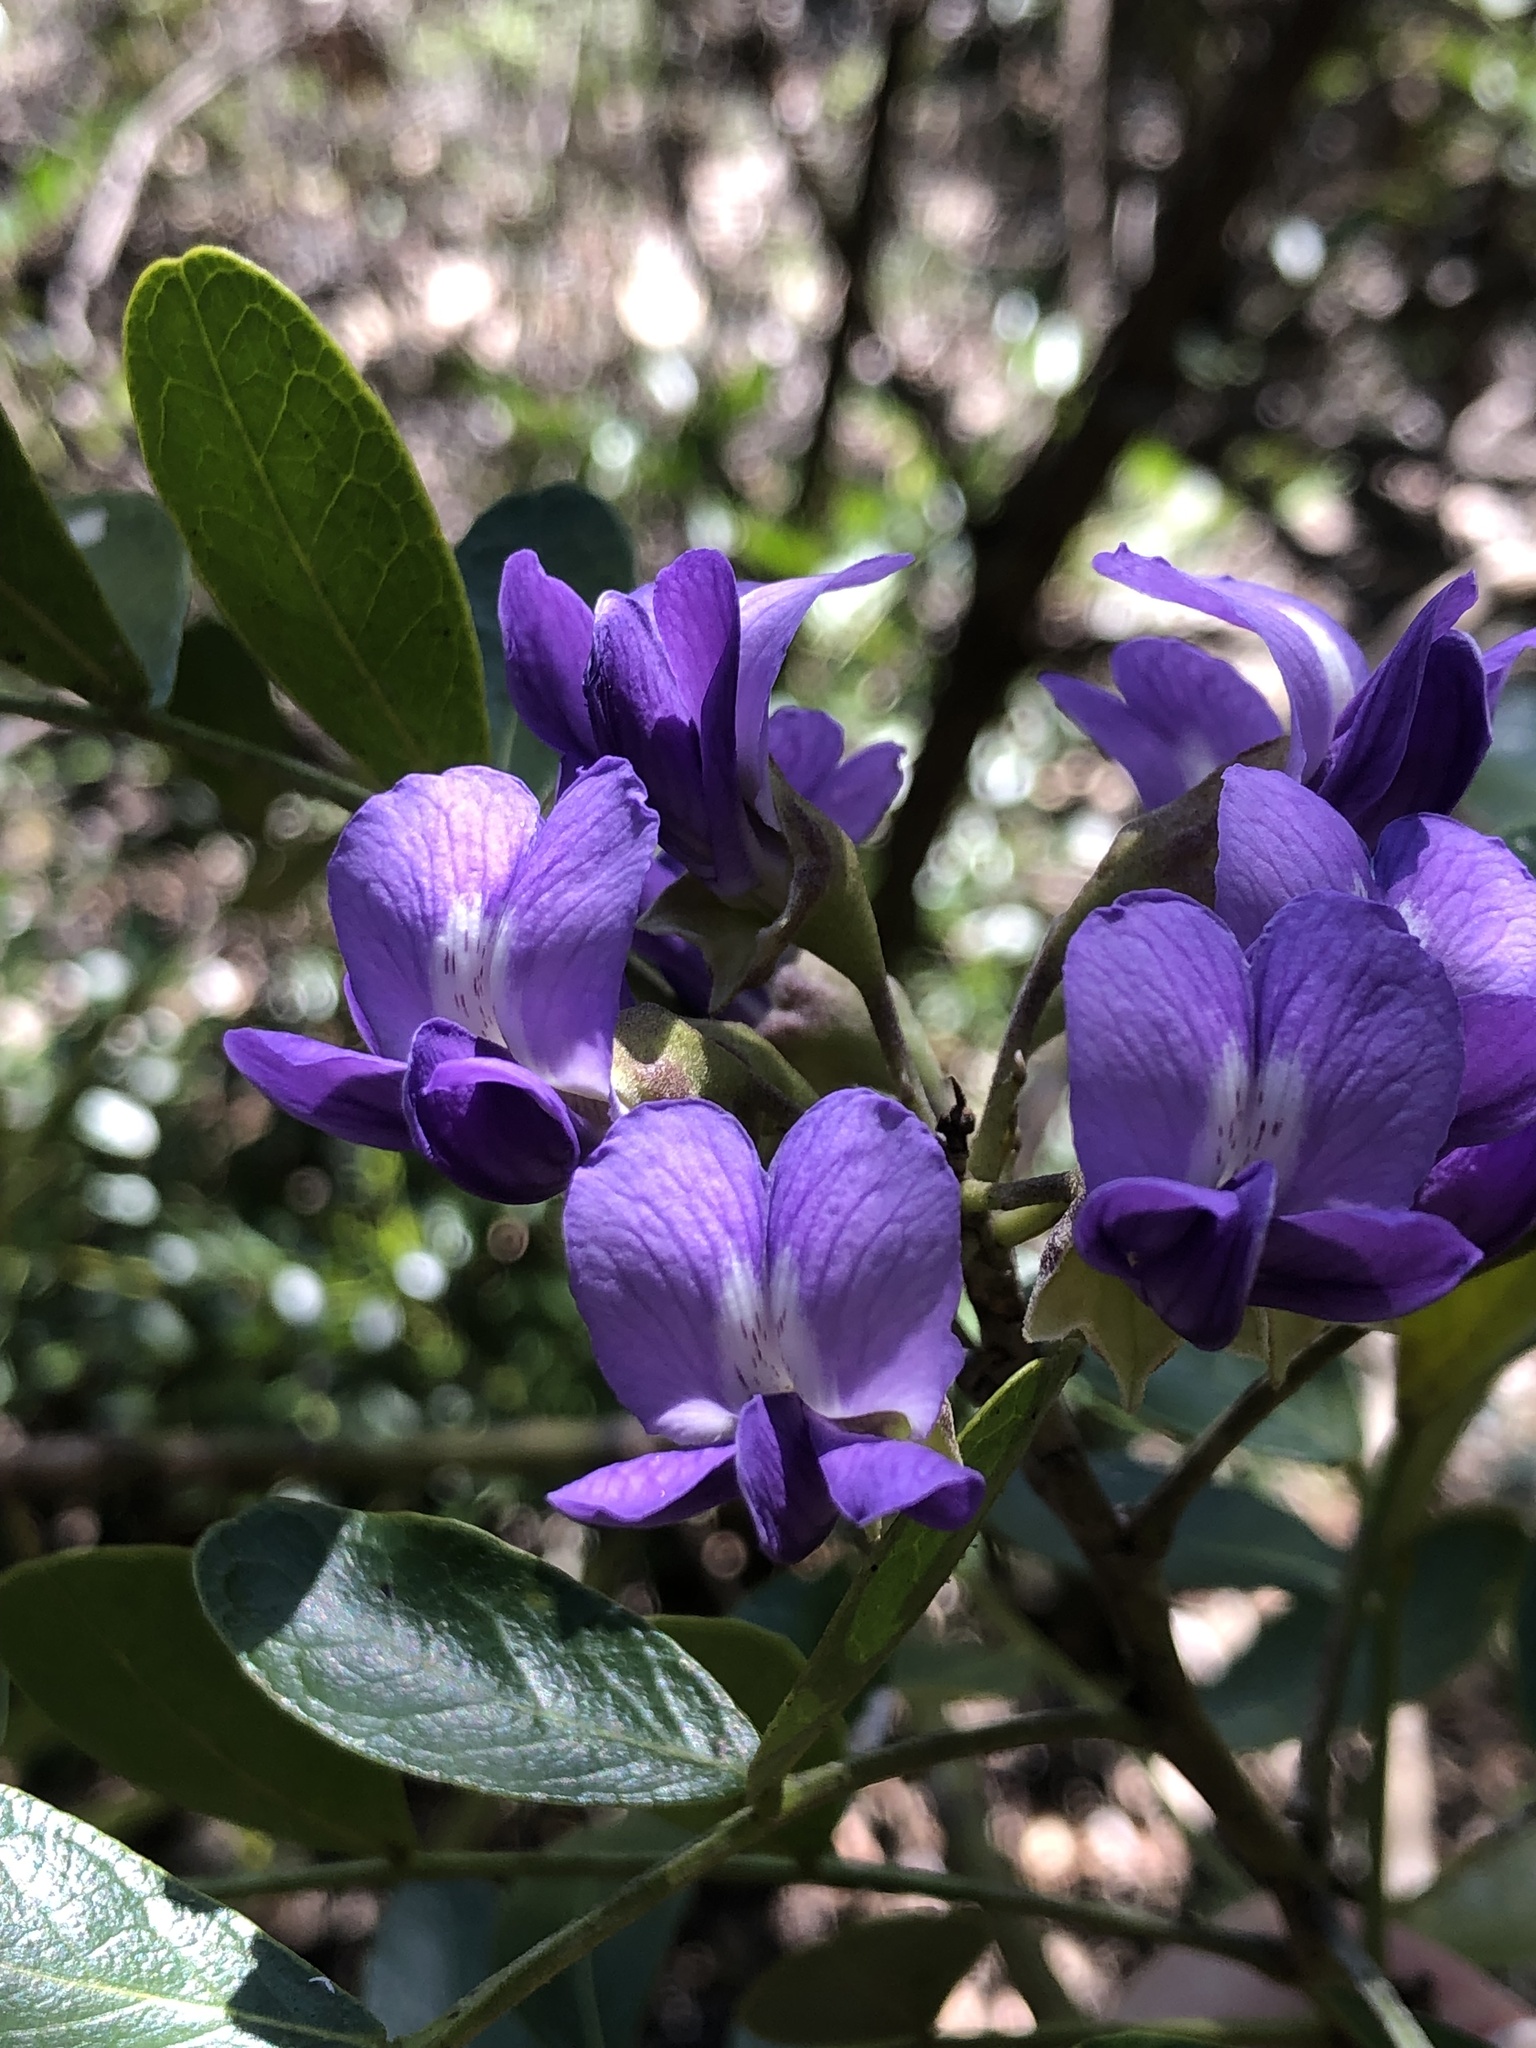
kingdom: Plantae
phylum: Tracheophyta
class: Magnoliopsida
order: Fabales
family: Fabaceae
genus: Dermatophyllum
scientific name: Dermatophyllum secundiflorum
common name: Texas-mountain-laurel
